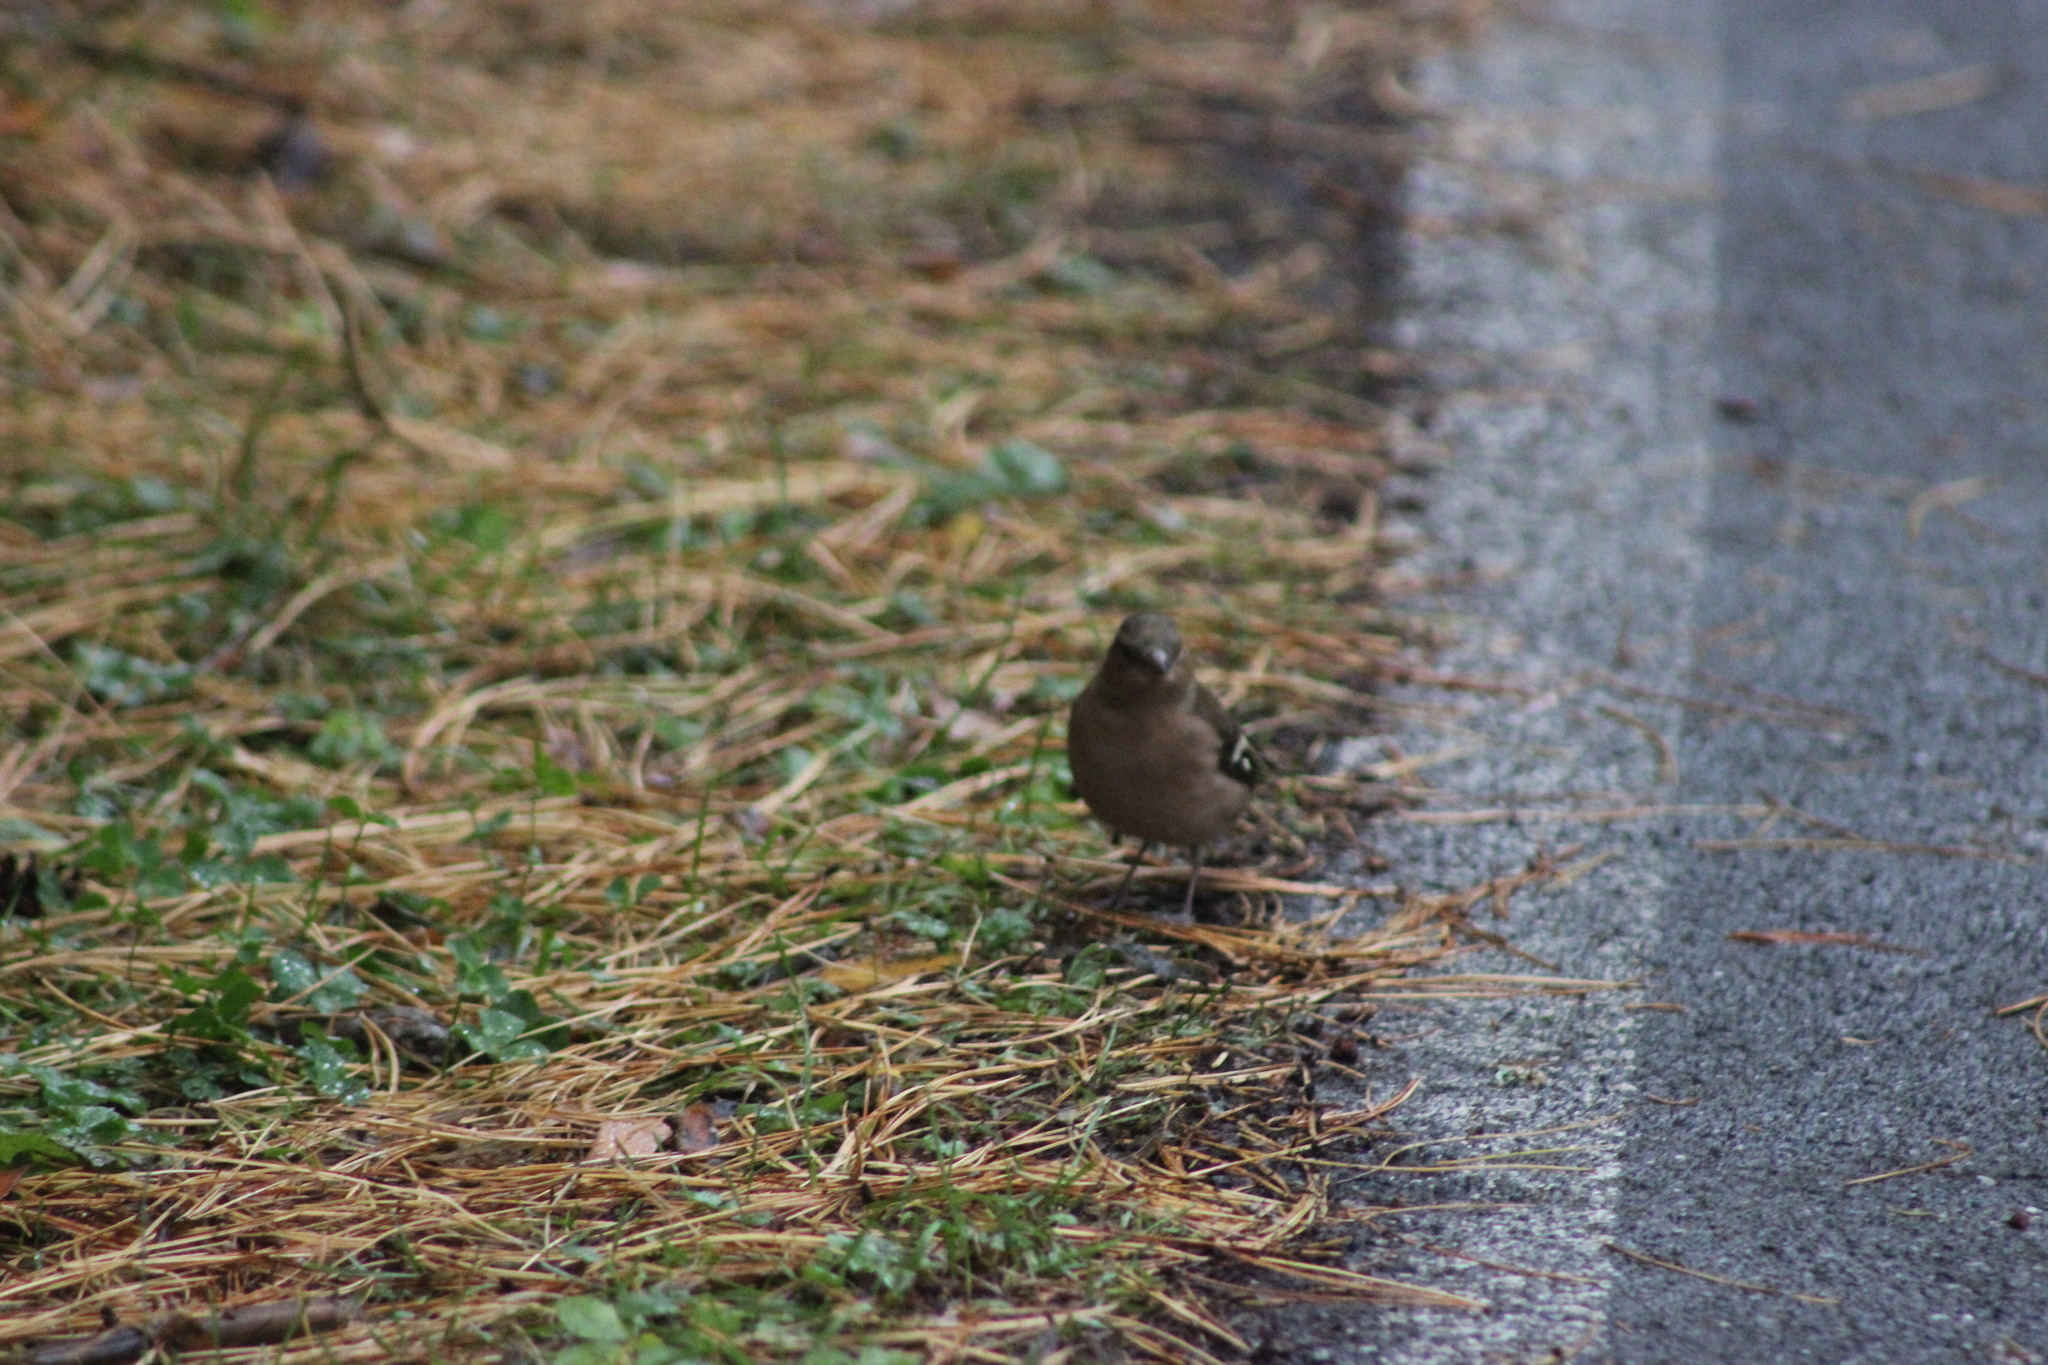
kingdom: Animalia
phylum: Chordata
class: Aves
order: Passeriformes
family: Fringillidae
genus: Fringilla
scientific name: Fringilla coelebs
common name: Common chaffinch
